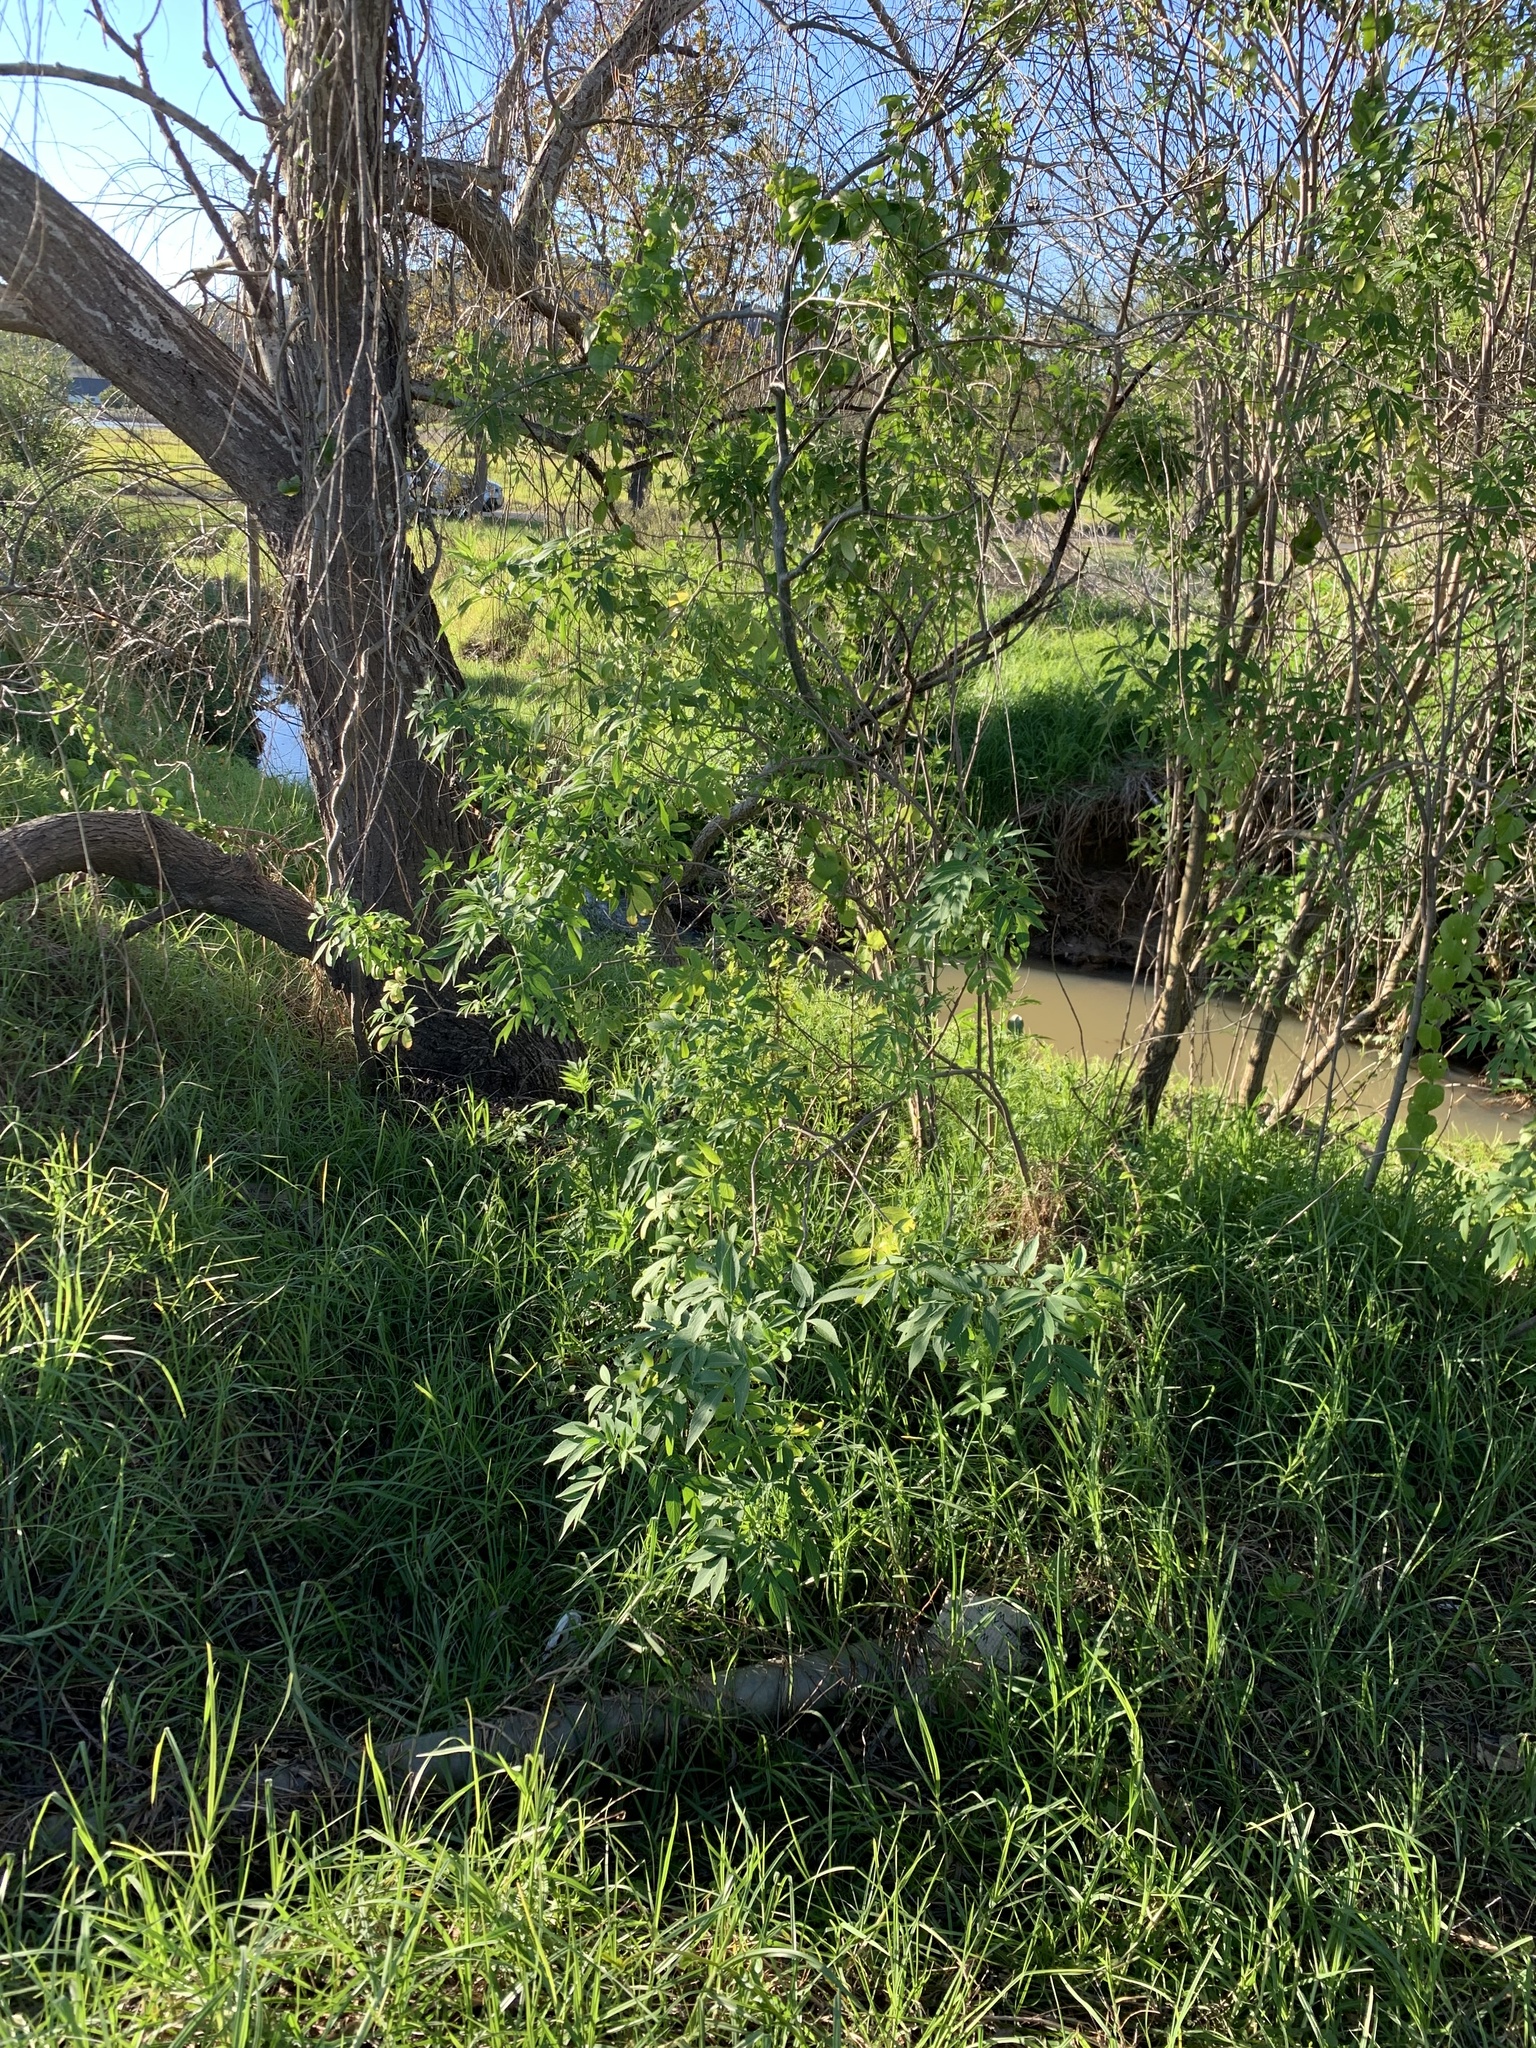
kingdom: Plantae
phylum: Tracheophyta
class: Magnoliopsida
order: Dipsacales
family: Viburnaceae
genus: Sambucus
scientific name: Sambucus nigra
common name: Elder
